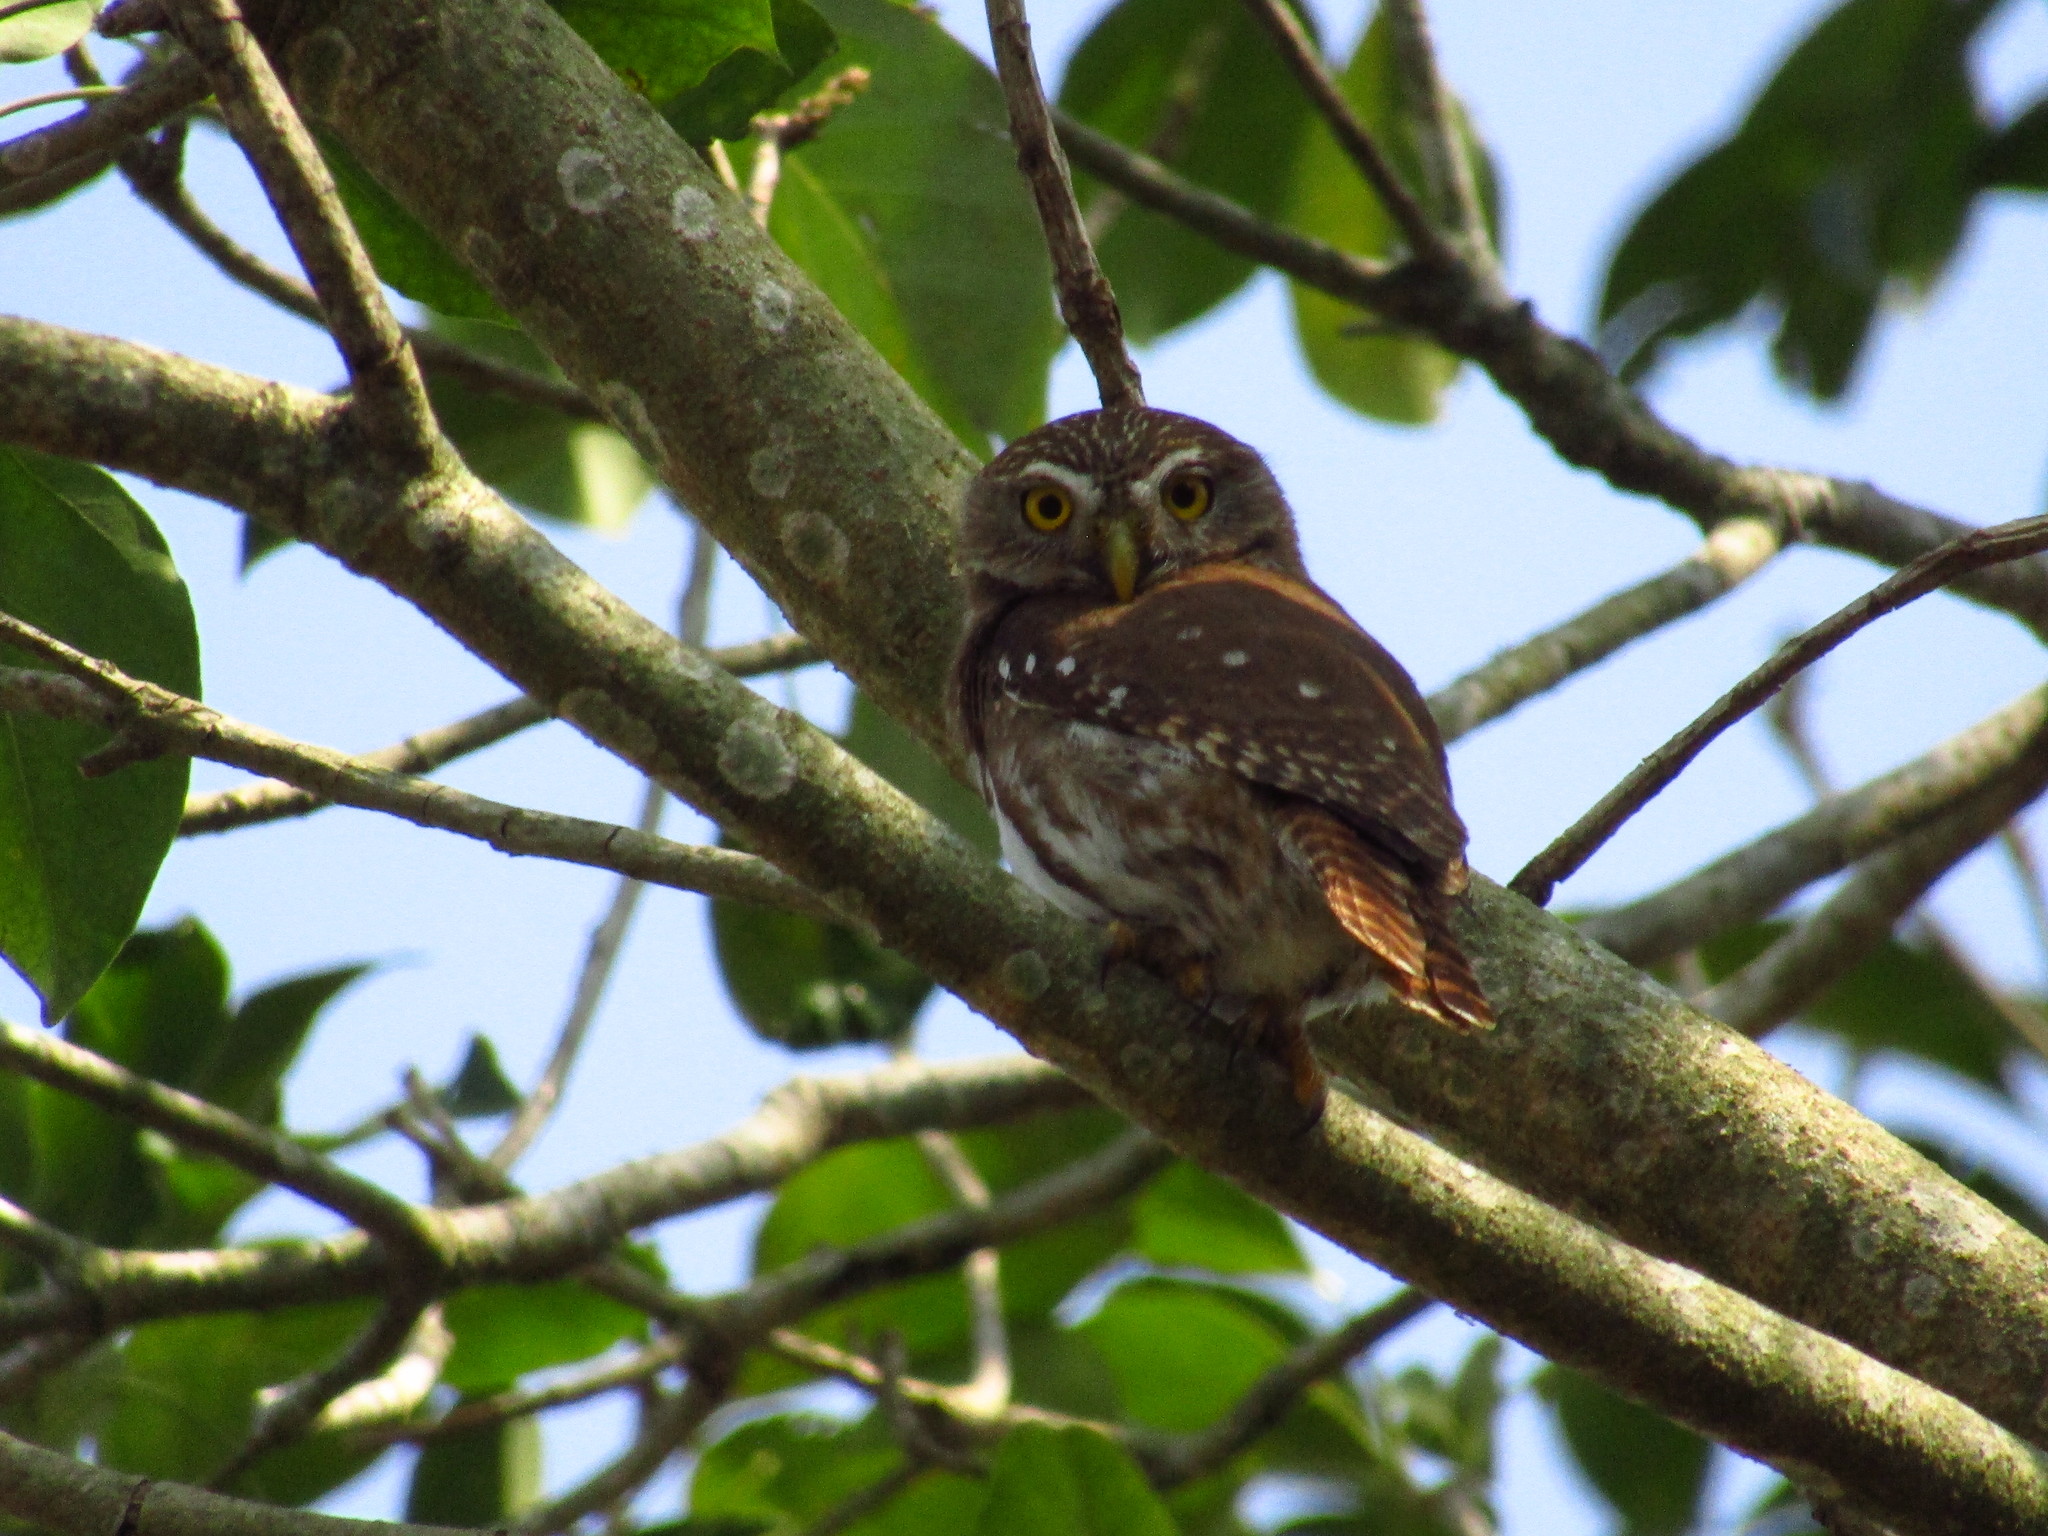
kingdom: Animalia
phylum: Chordata
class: Aves
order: Strigiformes
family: Strigidae
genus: Glaucidium
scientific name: Glaucidium brasilianum
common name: Ferruginous pygmy-owl
